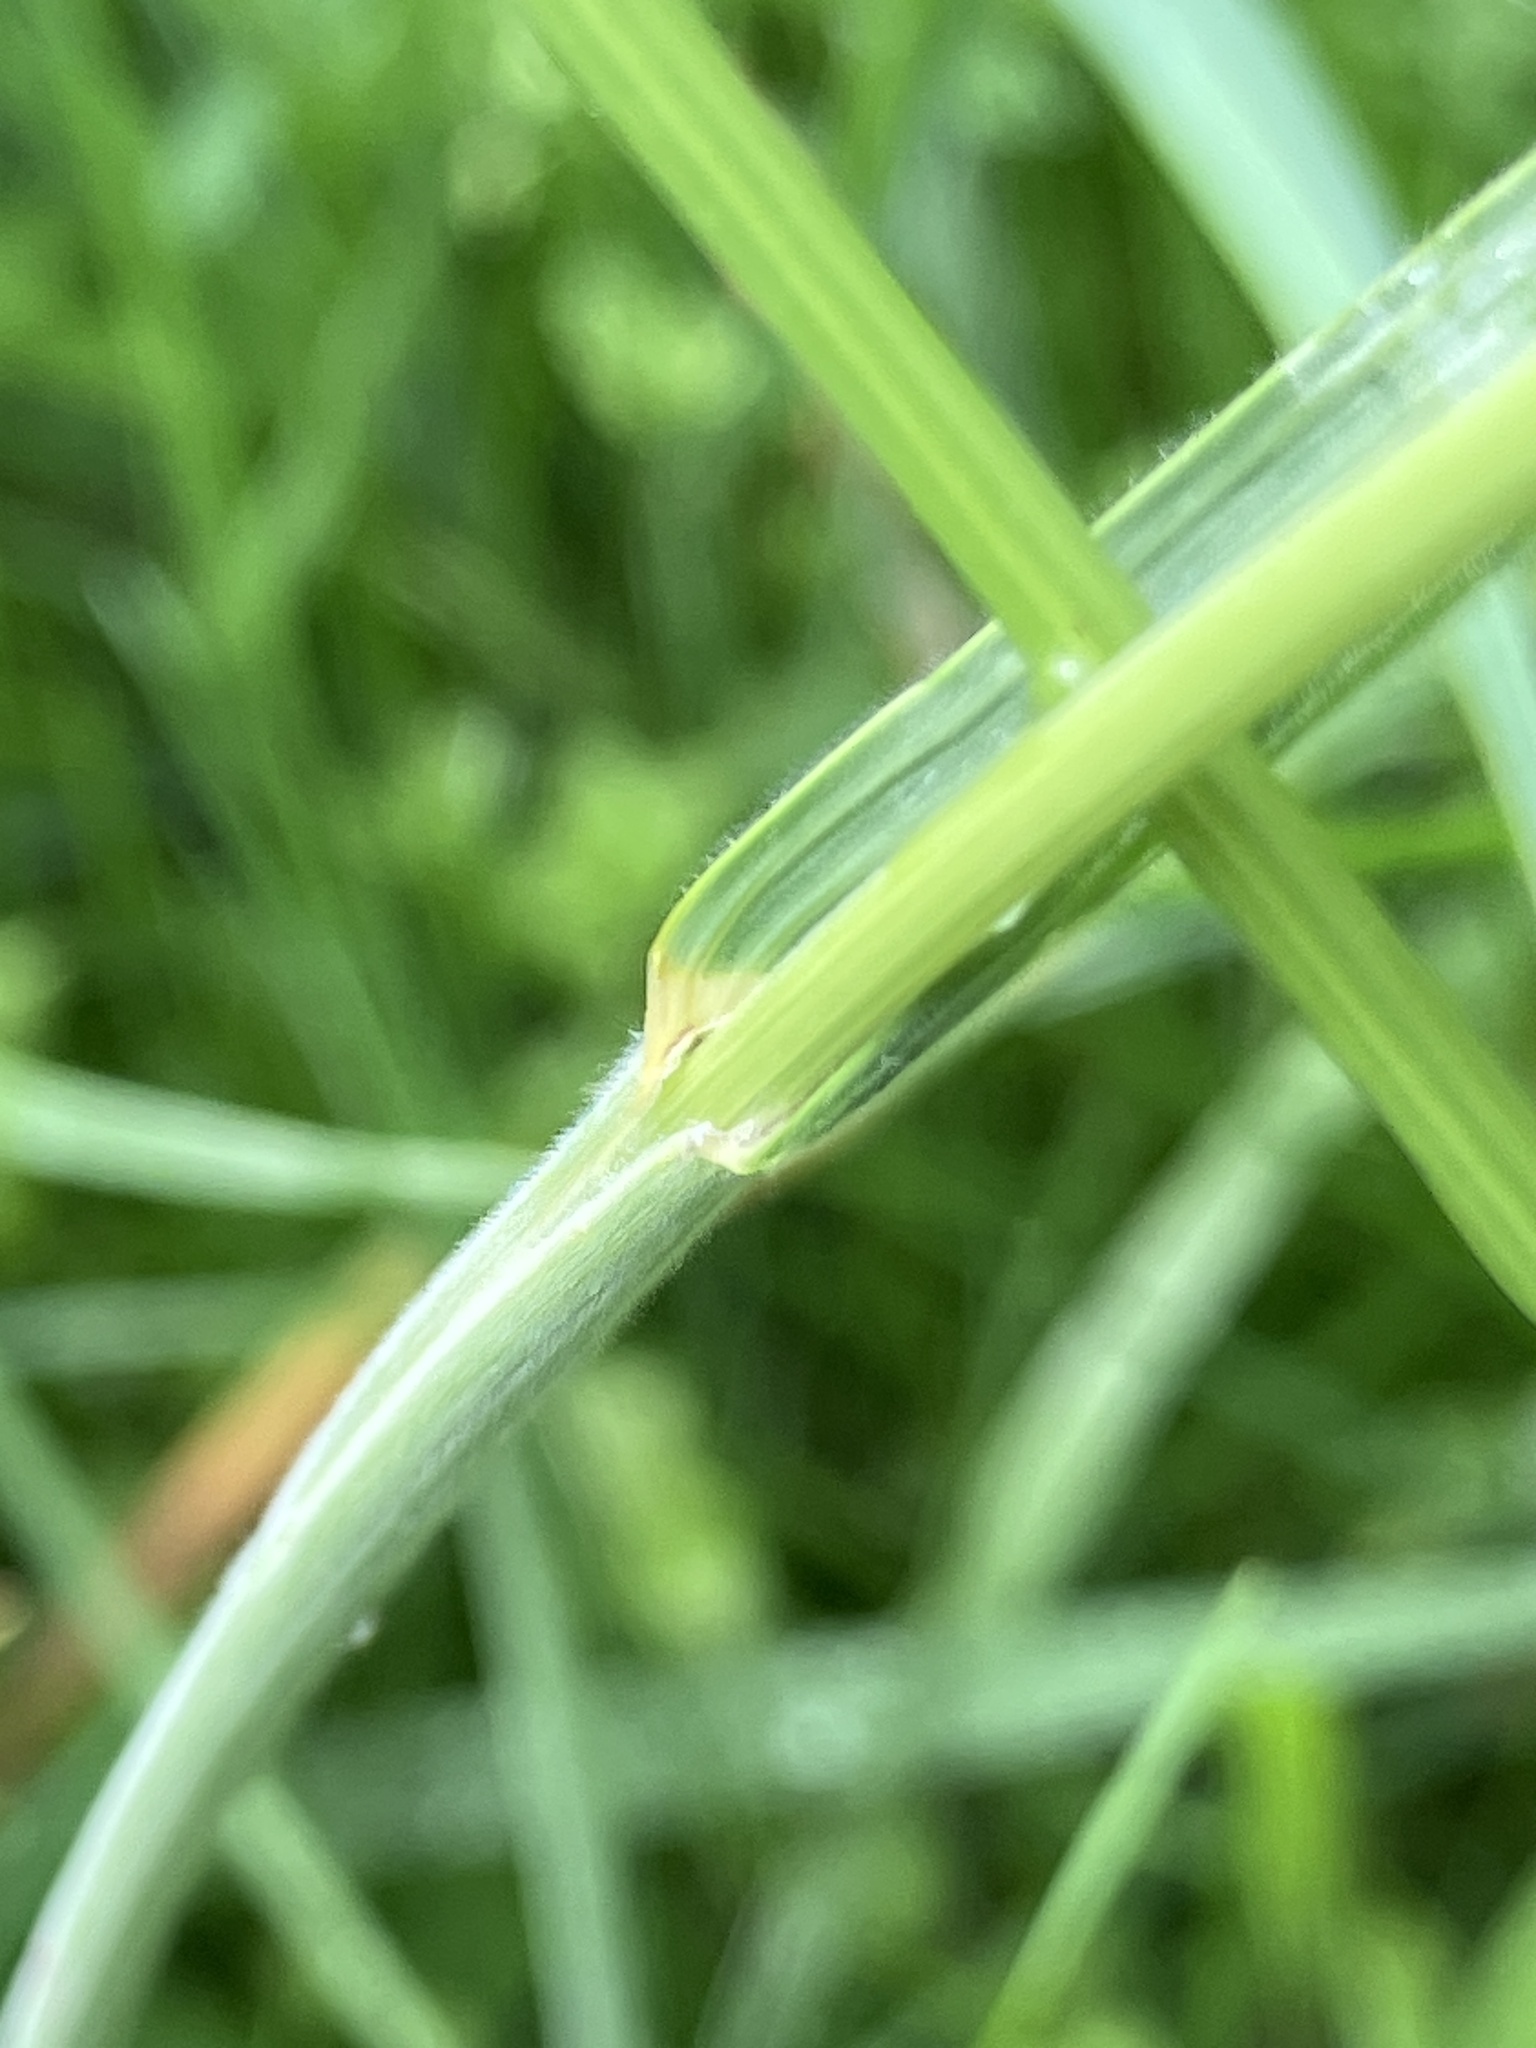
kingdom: Plantae
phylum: Tracheophyta
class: Liliopsida
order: Poales
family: Poaceae
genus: Bromus
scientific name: Bromus hordeaceus
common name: Soft brome
